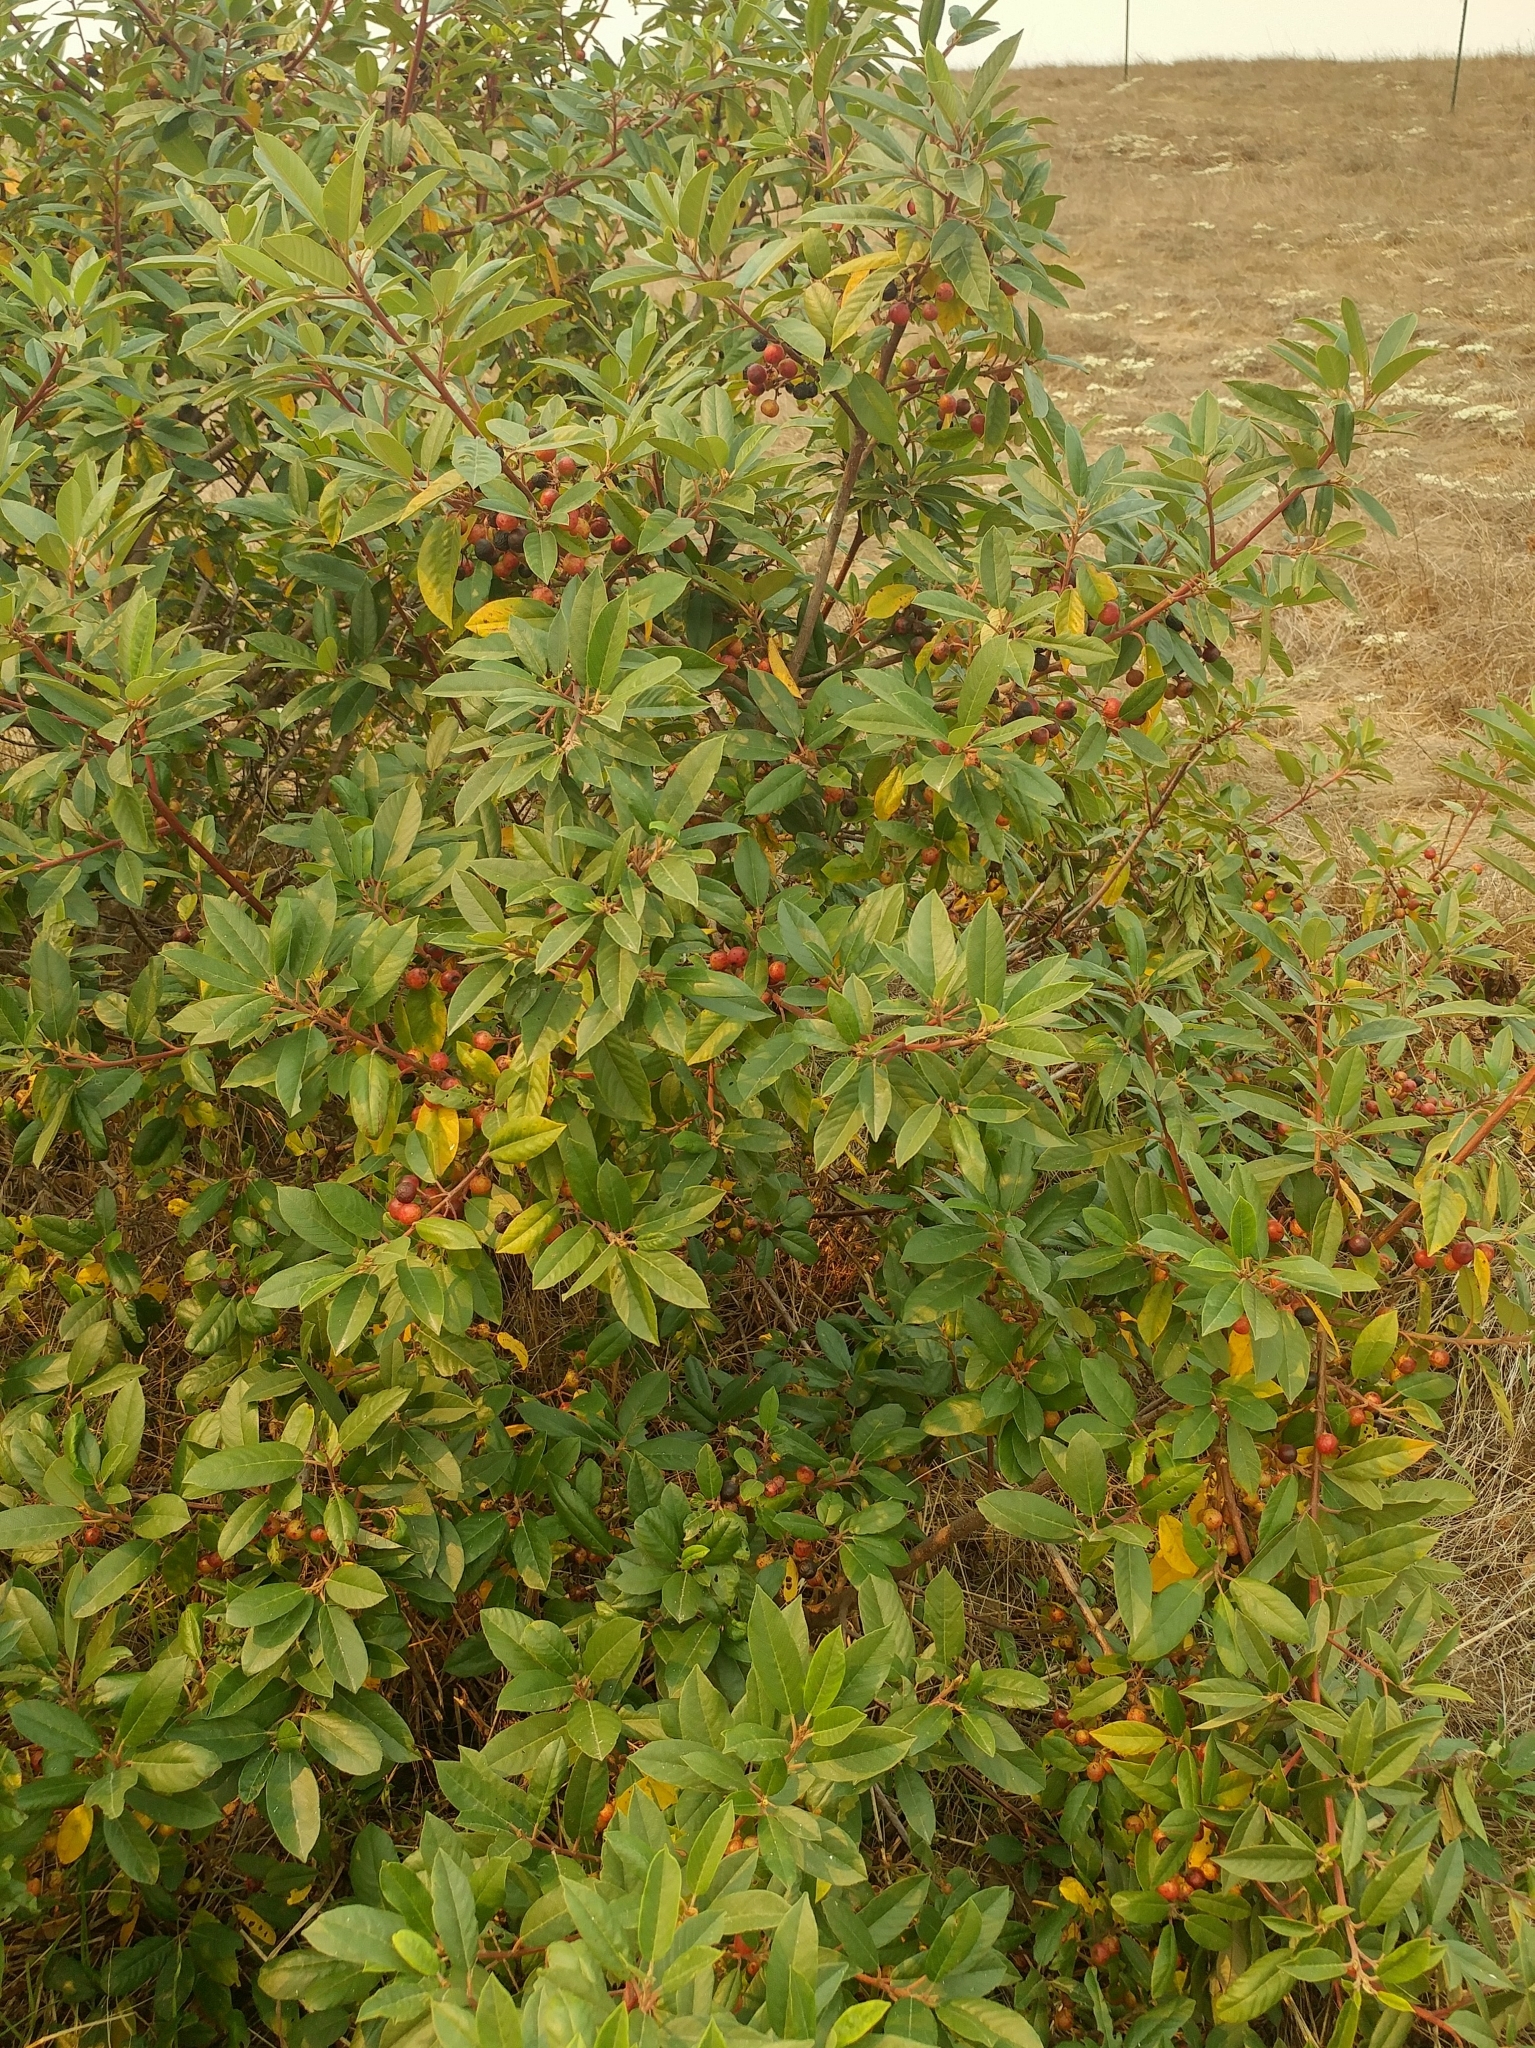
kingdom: Plantae
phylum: Tracheophyta
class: Magnoliopsida
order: Rosales
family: Rhamnaceae
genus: Frangula
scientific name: Frangula californica
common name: California buckthorn
